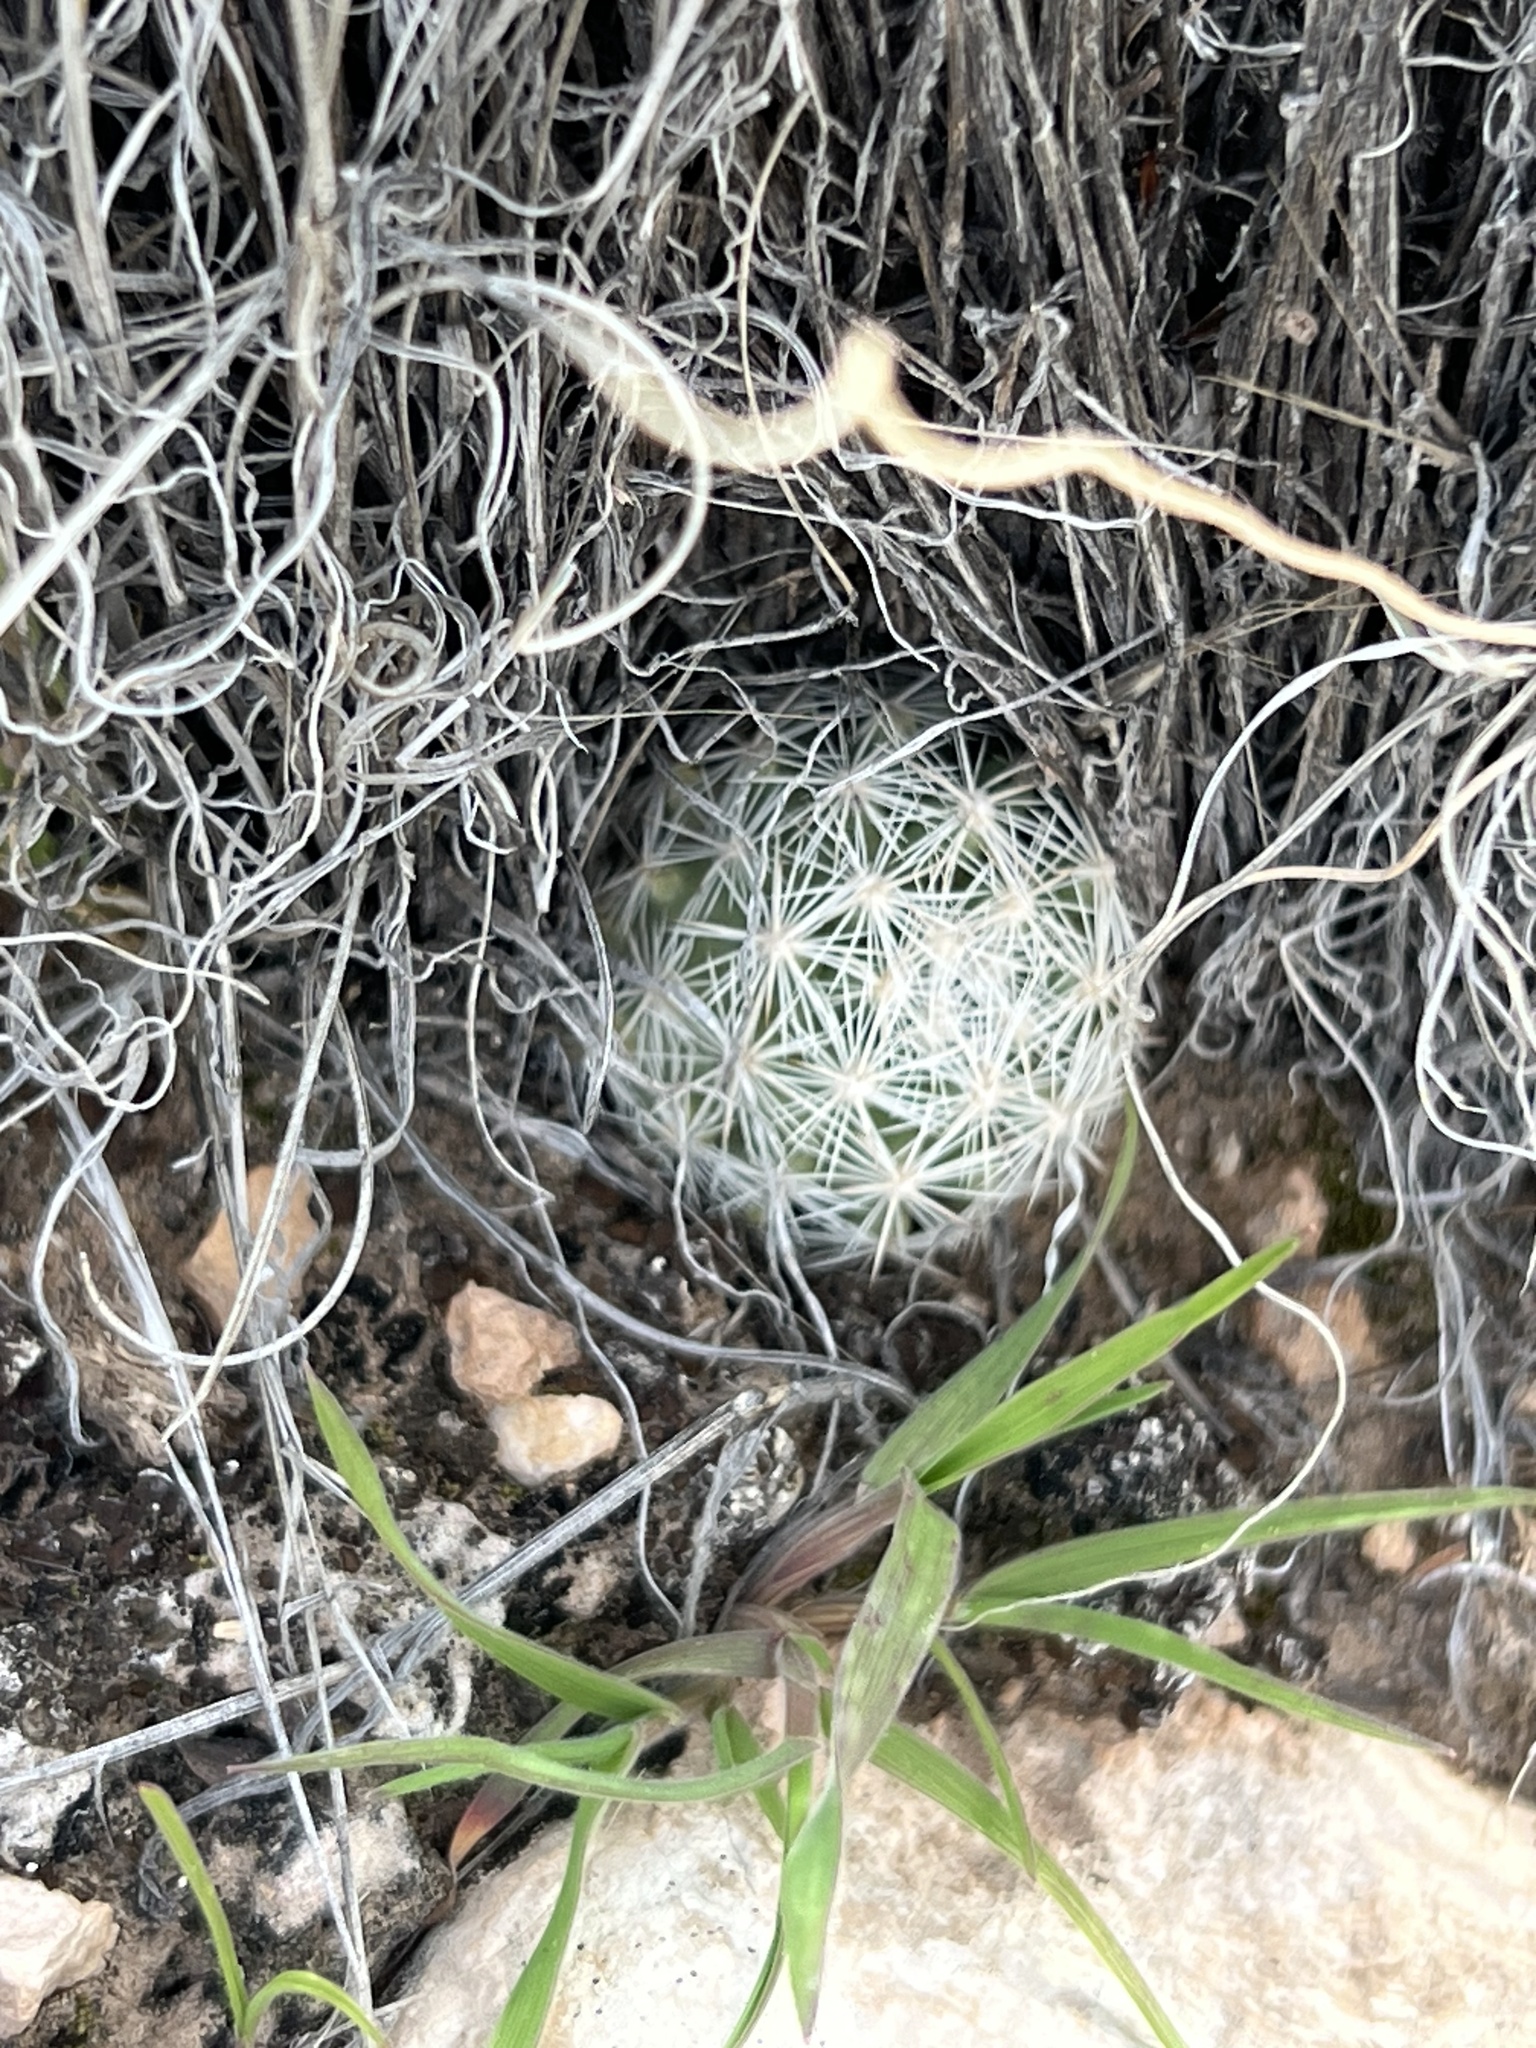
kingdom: Plantae
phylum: Tracheophyta
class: Magnoliopsida
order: Caryophyllales
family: Cactaceae
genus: Pelecyphora
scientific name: Pelecyphora dasyacantha
